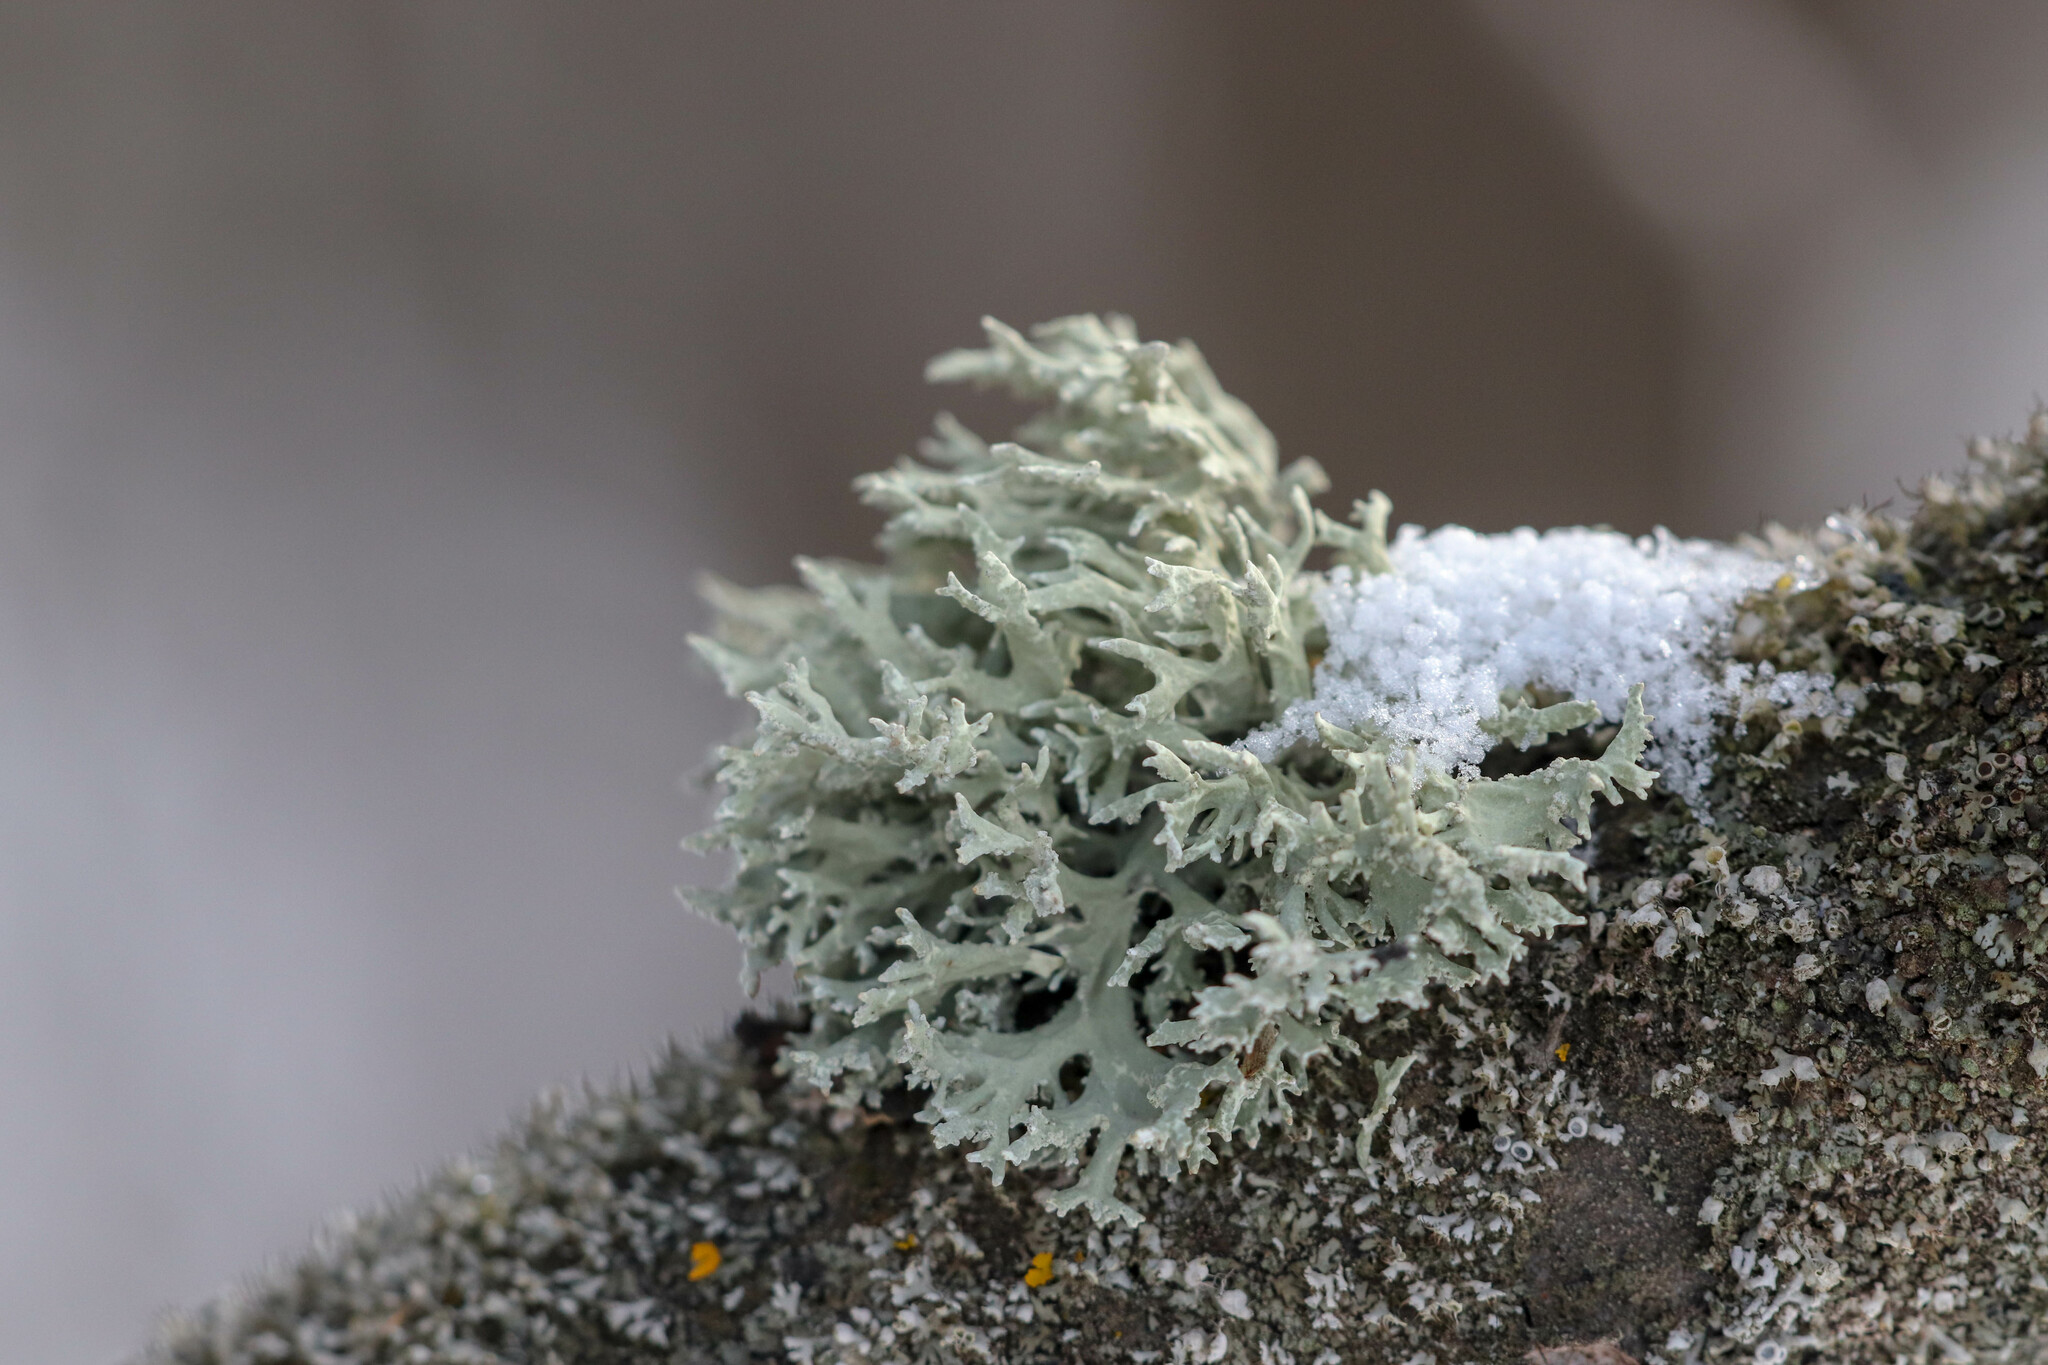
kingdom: Fungi
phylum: Ascomycota
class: Lecanoromycetes
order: Lecanorales
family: Parmeliaceae
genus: Evernia
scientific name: Evernia prunastri
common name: Oak moss
